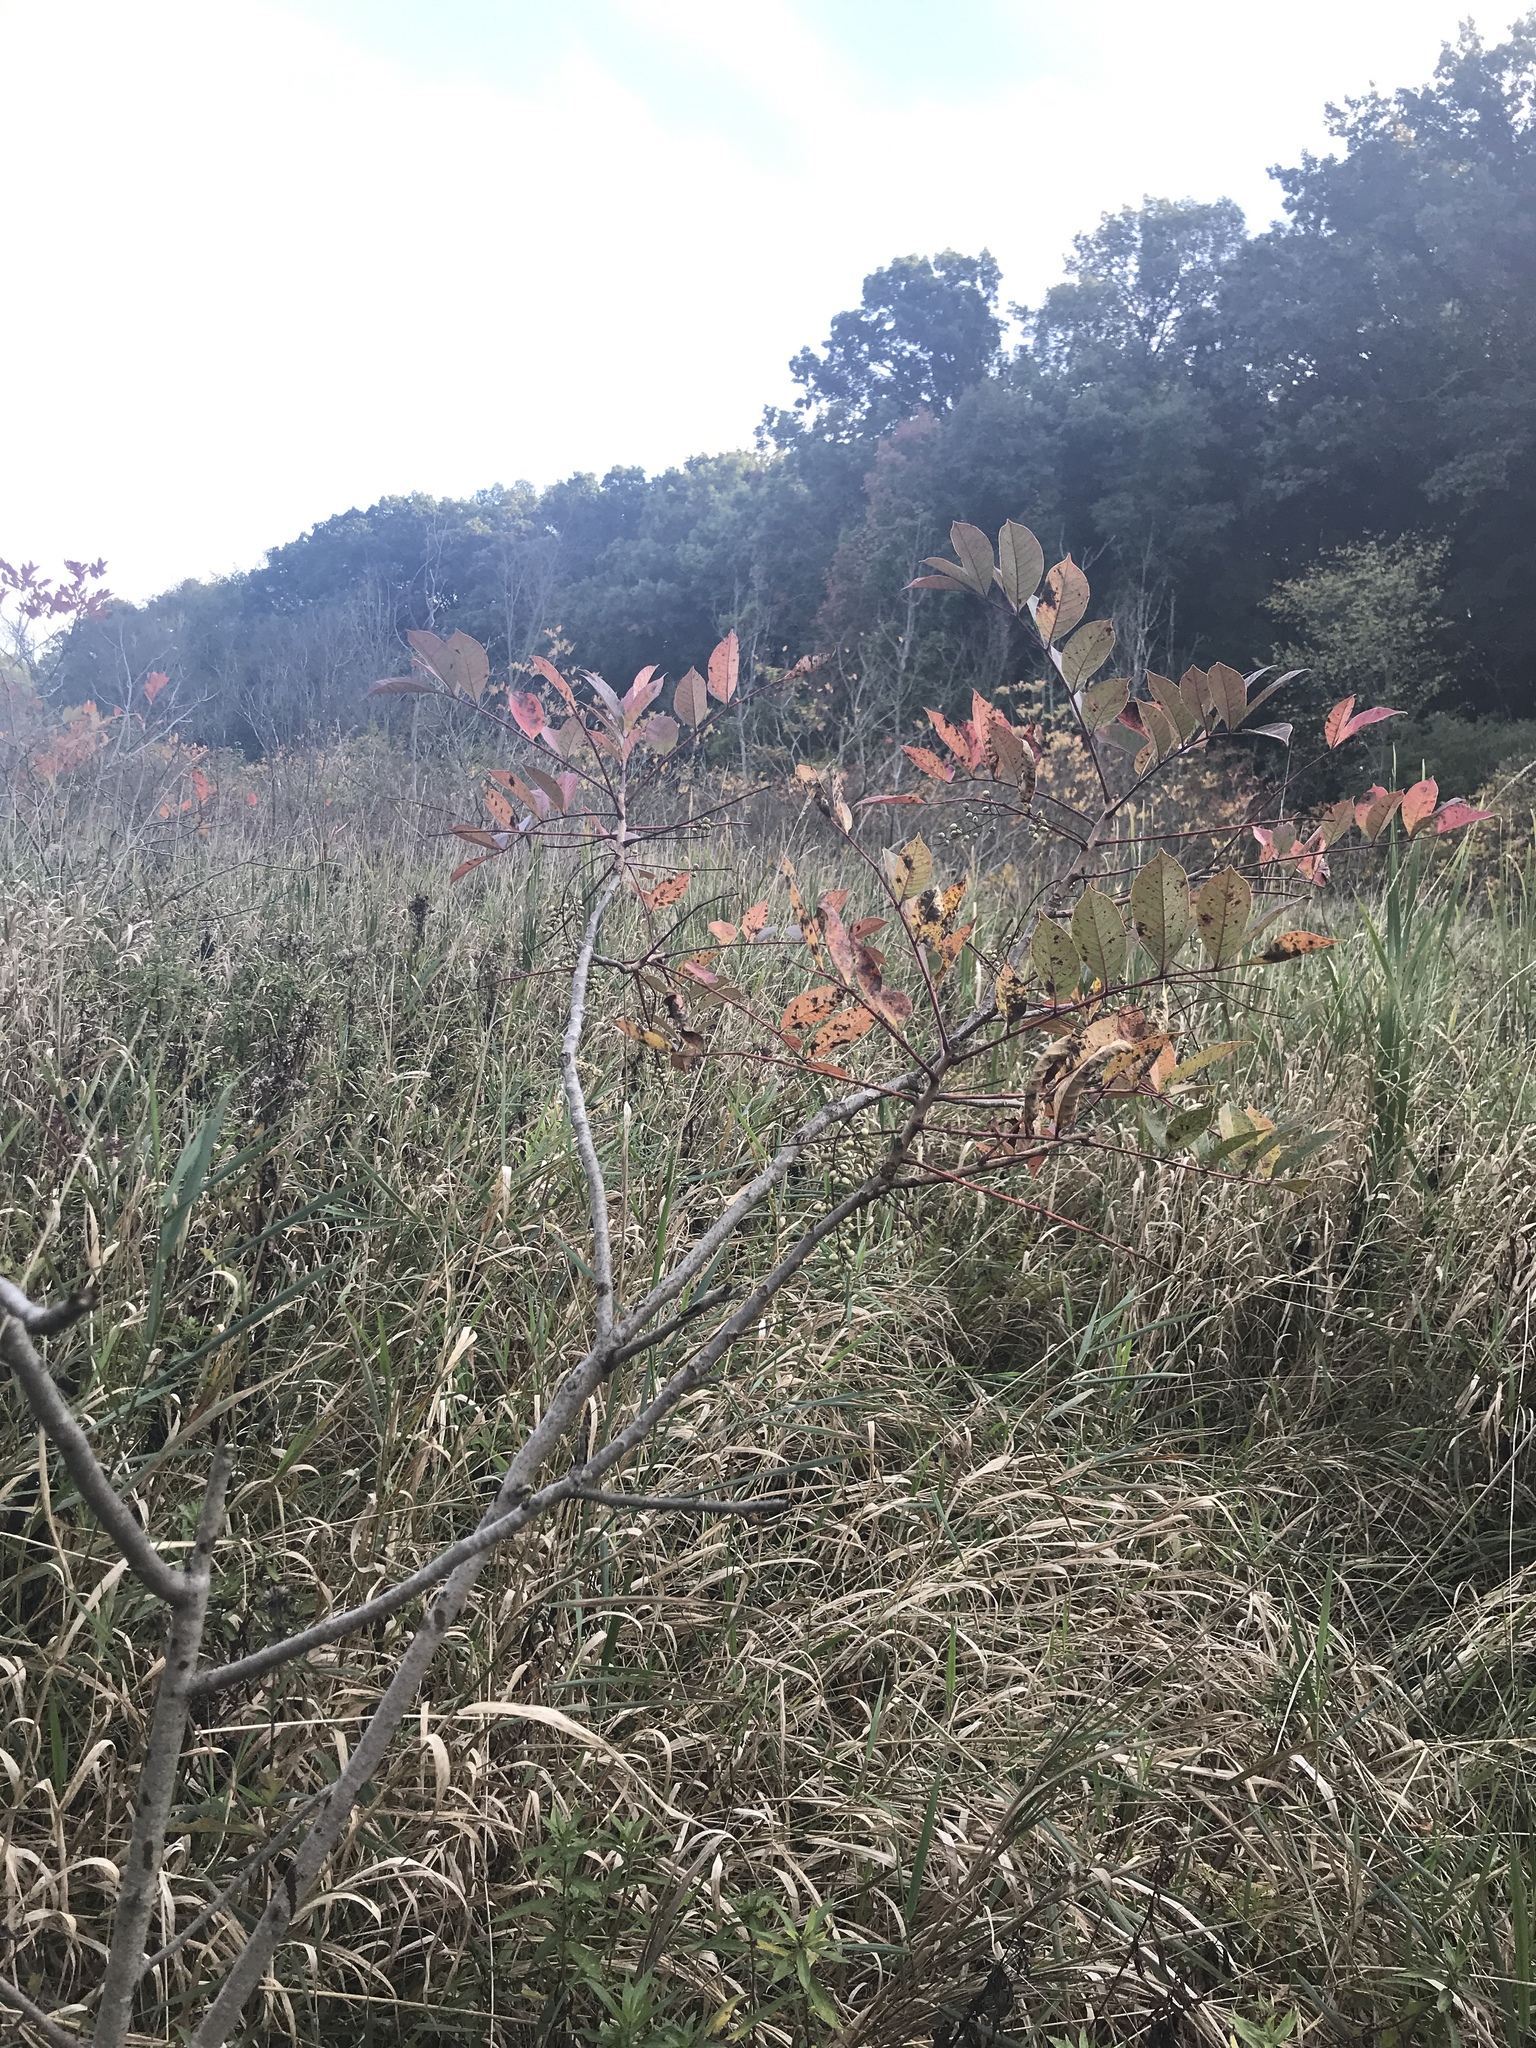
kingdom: Plantae
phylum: Tracheophyta
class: Magnoliopsida
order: Sapindales
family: Anacardiaceae
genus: Toxicodendron
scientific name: Toxicodendron vernix
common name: Poison sumac
